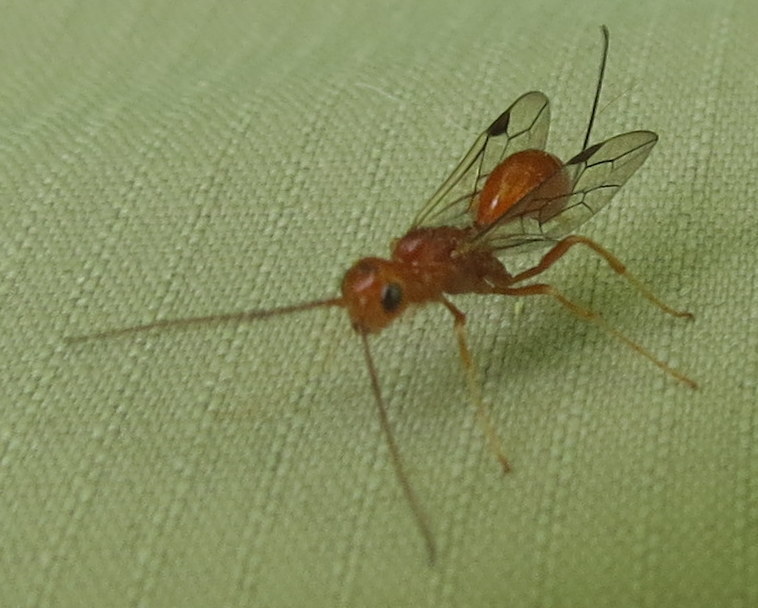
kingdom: Animalia
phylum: Arthropoda
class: Insecta
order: Hymenoptera
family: Aulacidae
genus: Aulacus
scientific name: Aulacus burquei
